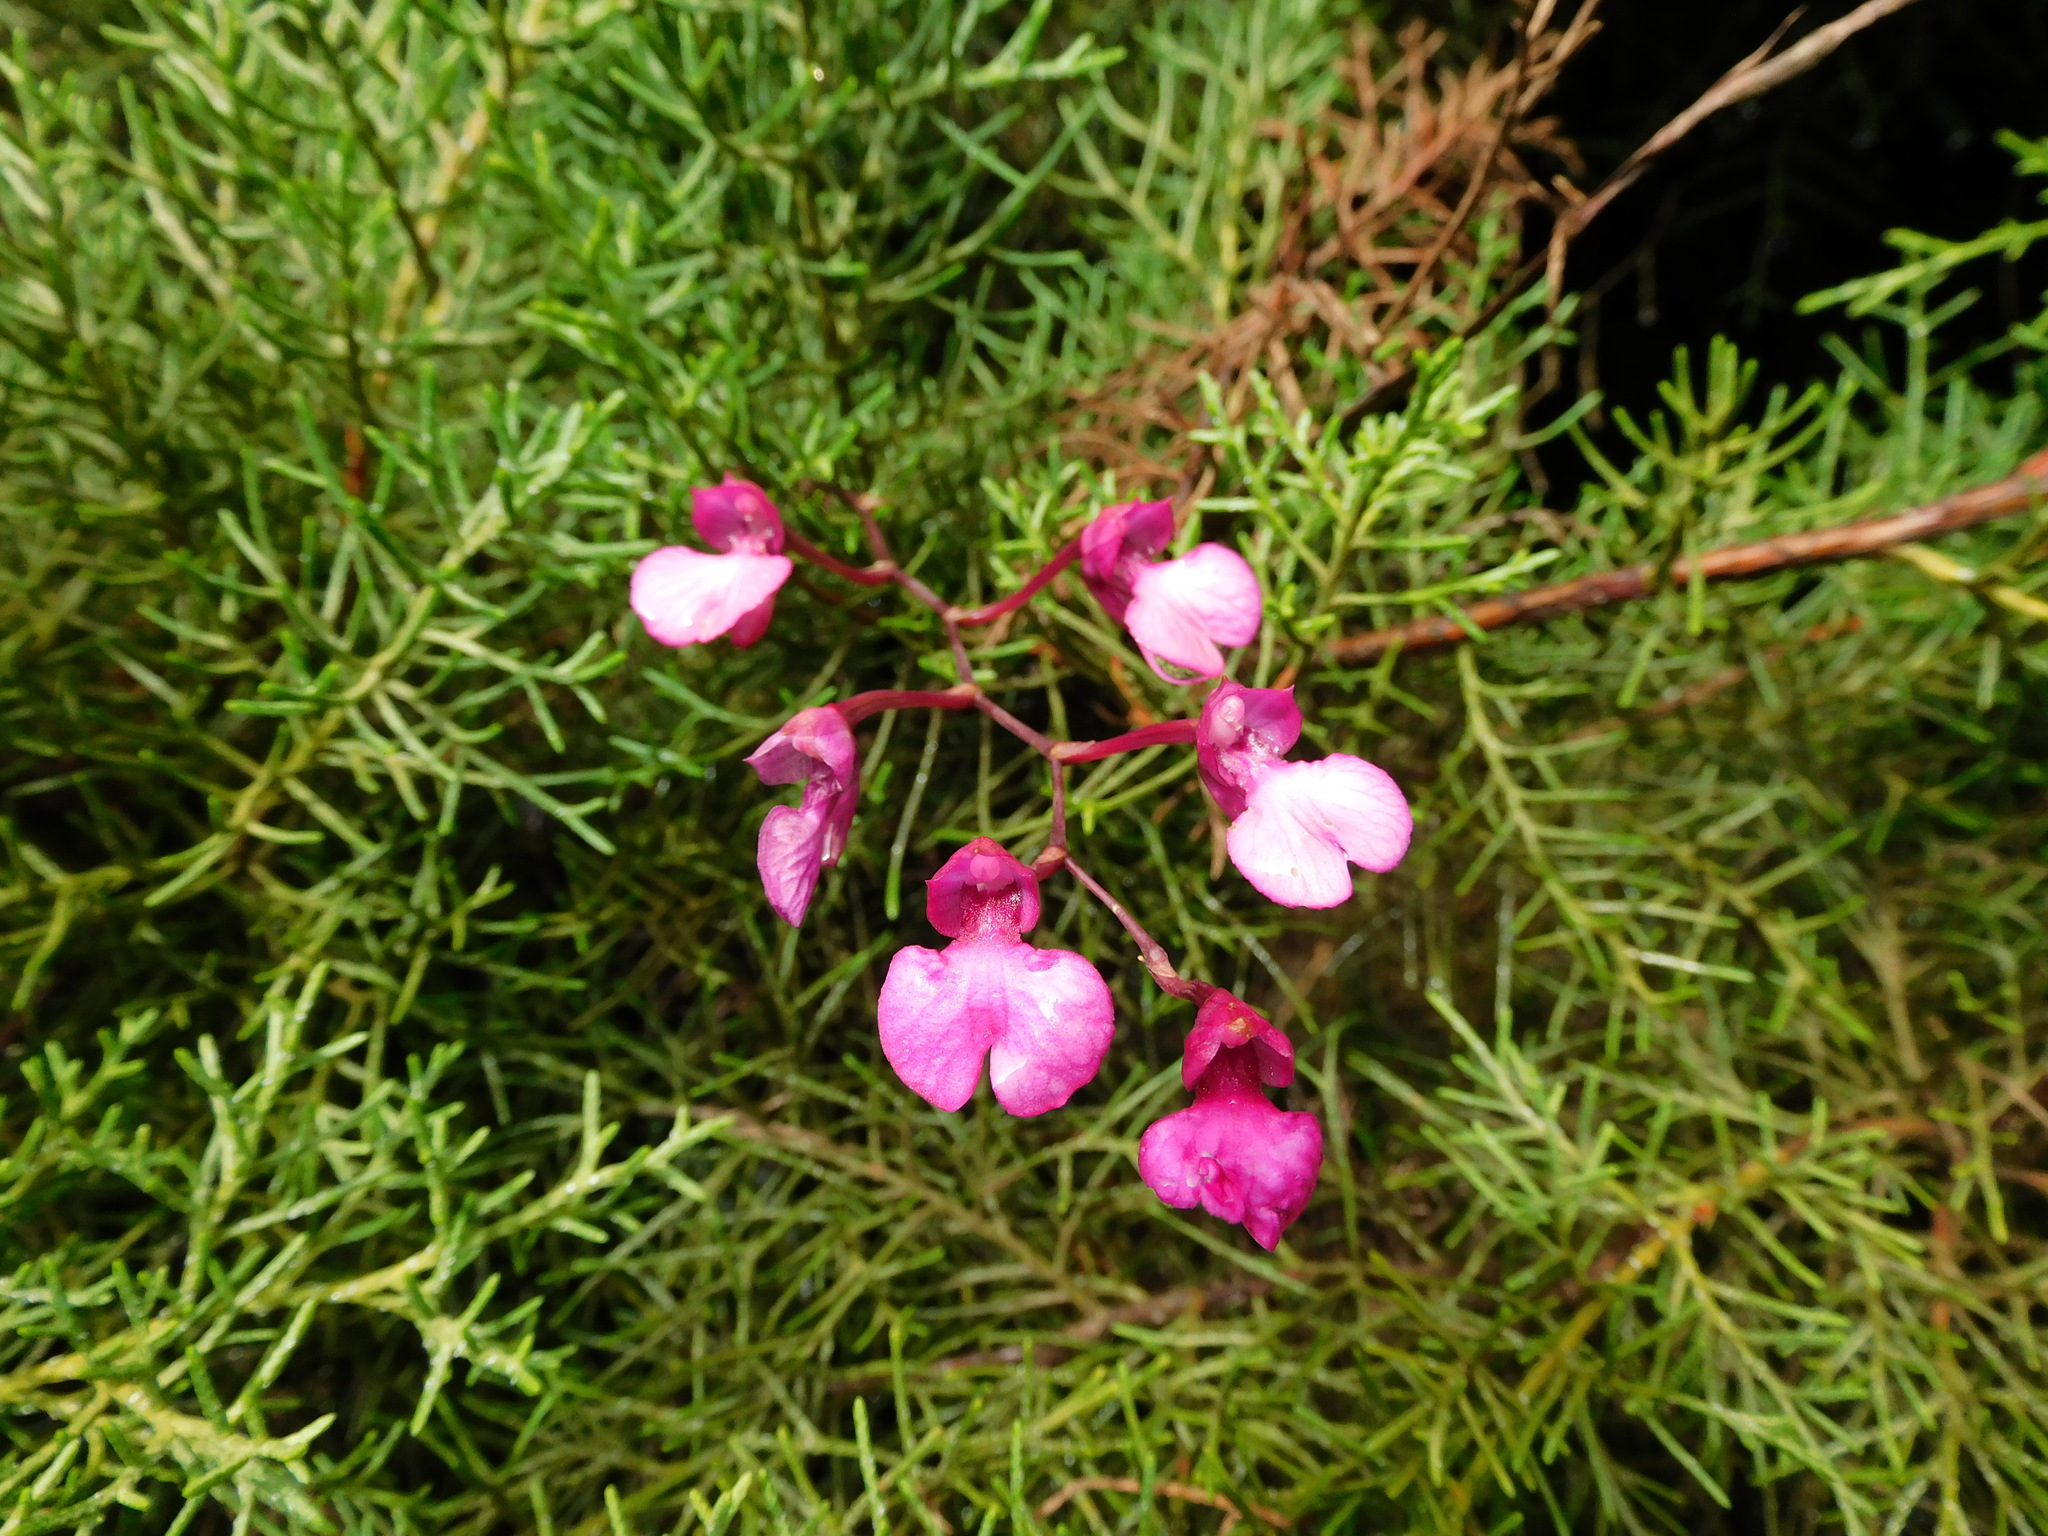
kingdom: Plantae
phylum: Tracheophyta
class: Liliopsida
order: Asparagales
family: Orchidaceae
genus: Comparettia
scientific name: Comparettia falcata
